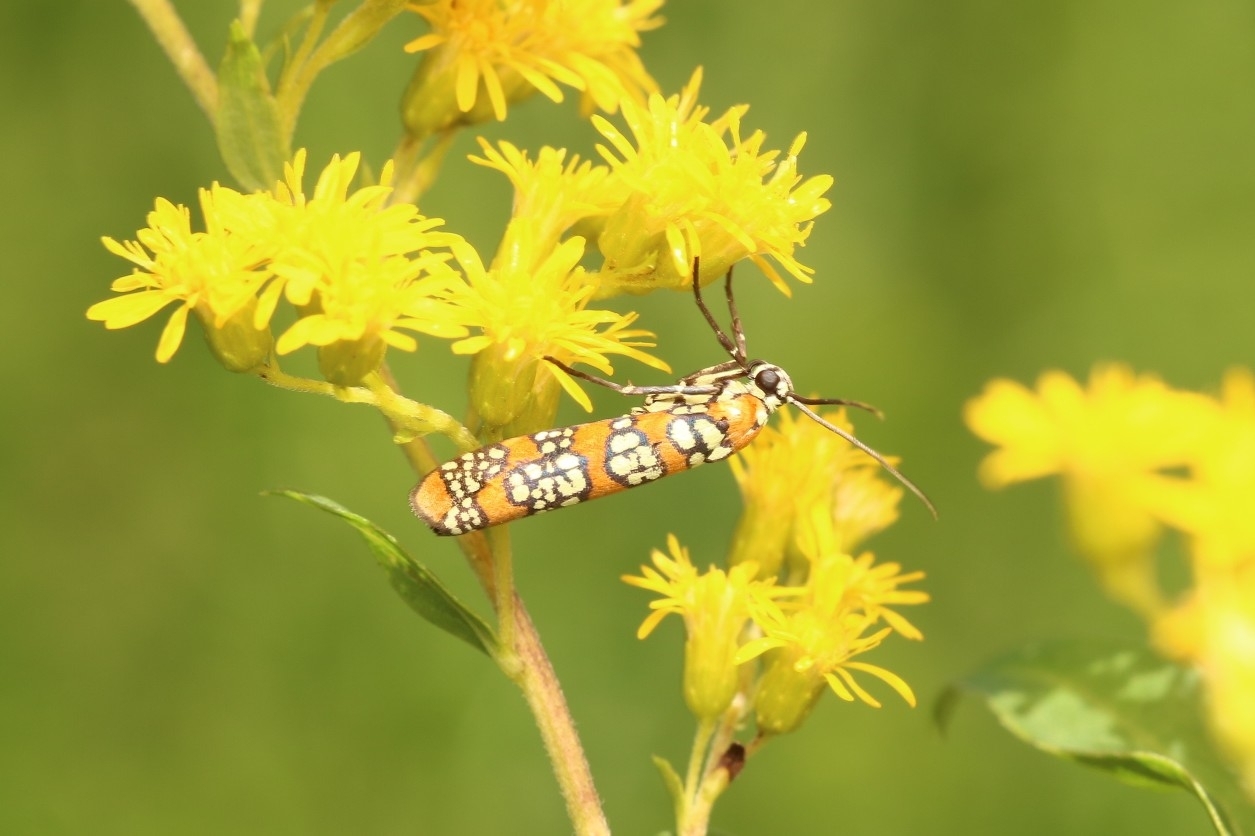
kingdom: Animalia
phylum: Arthropoda
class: Insecta
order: Lepidoptera
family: Attevidae
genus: Atteva
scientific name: Atteva punctella
